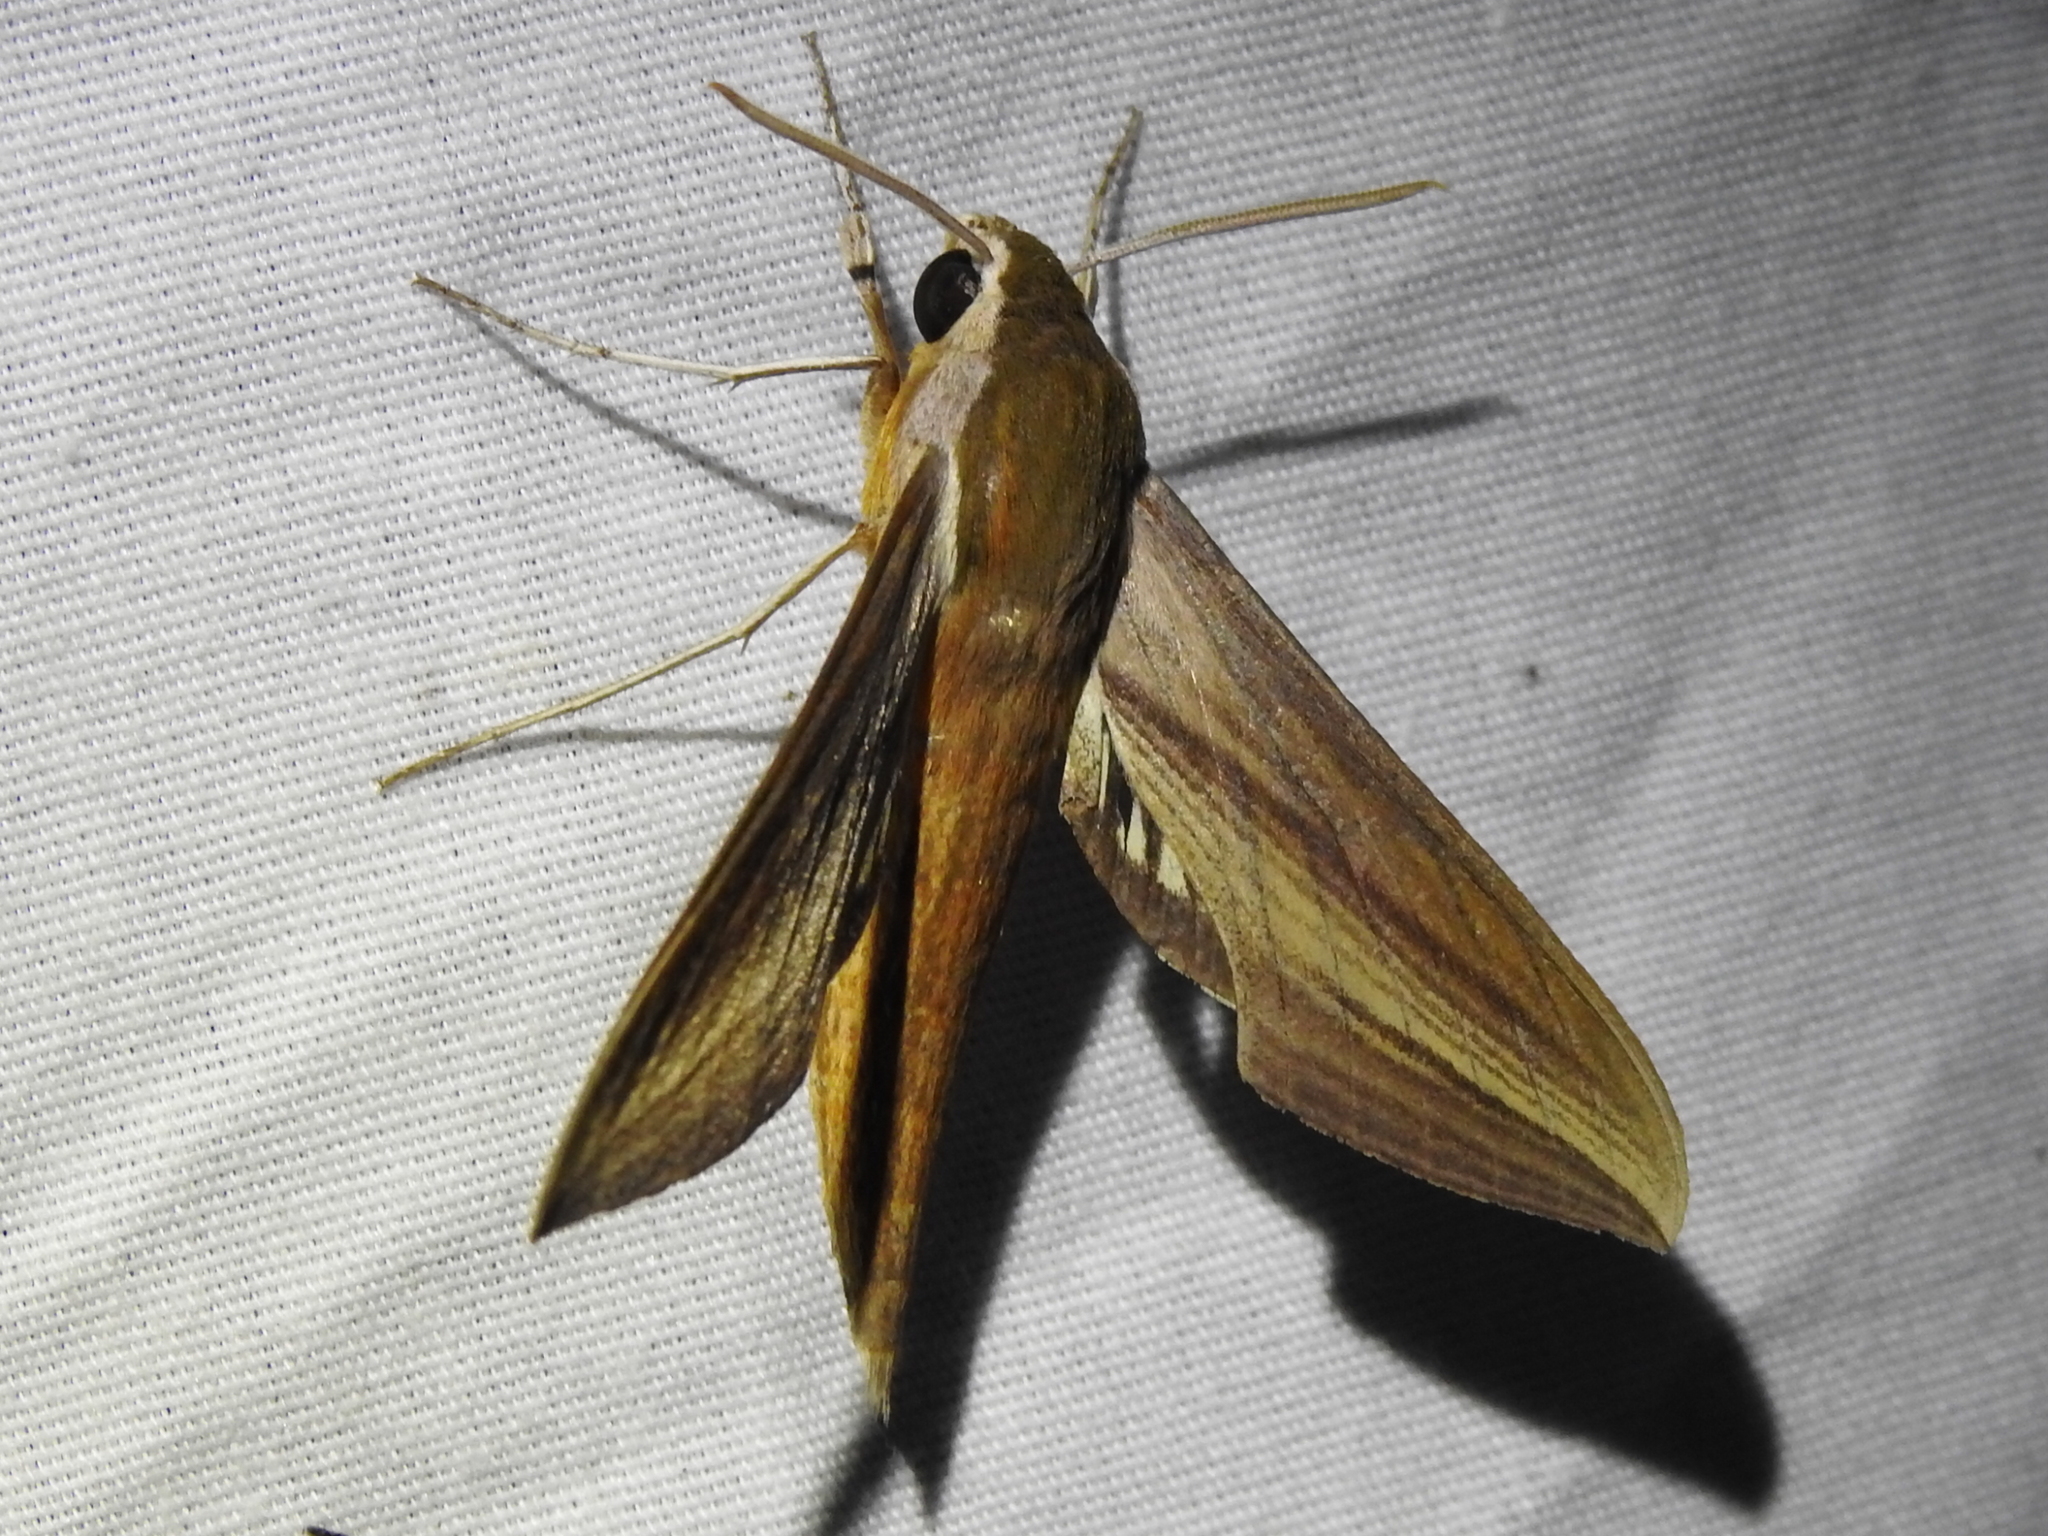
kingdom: Animalia
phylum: Arthropoda
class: Insecta
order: Lepidoptera
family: Sphingidae
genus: Xylophanes
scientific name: Xylophanes tersa
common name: Tersa sphinx
